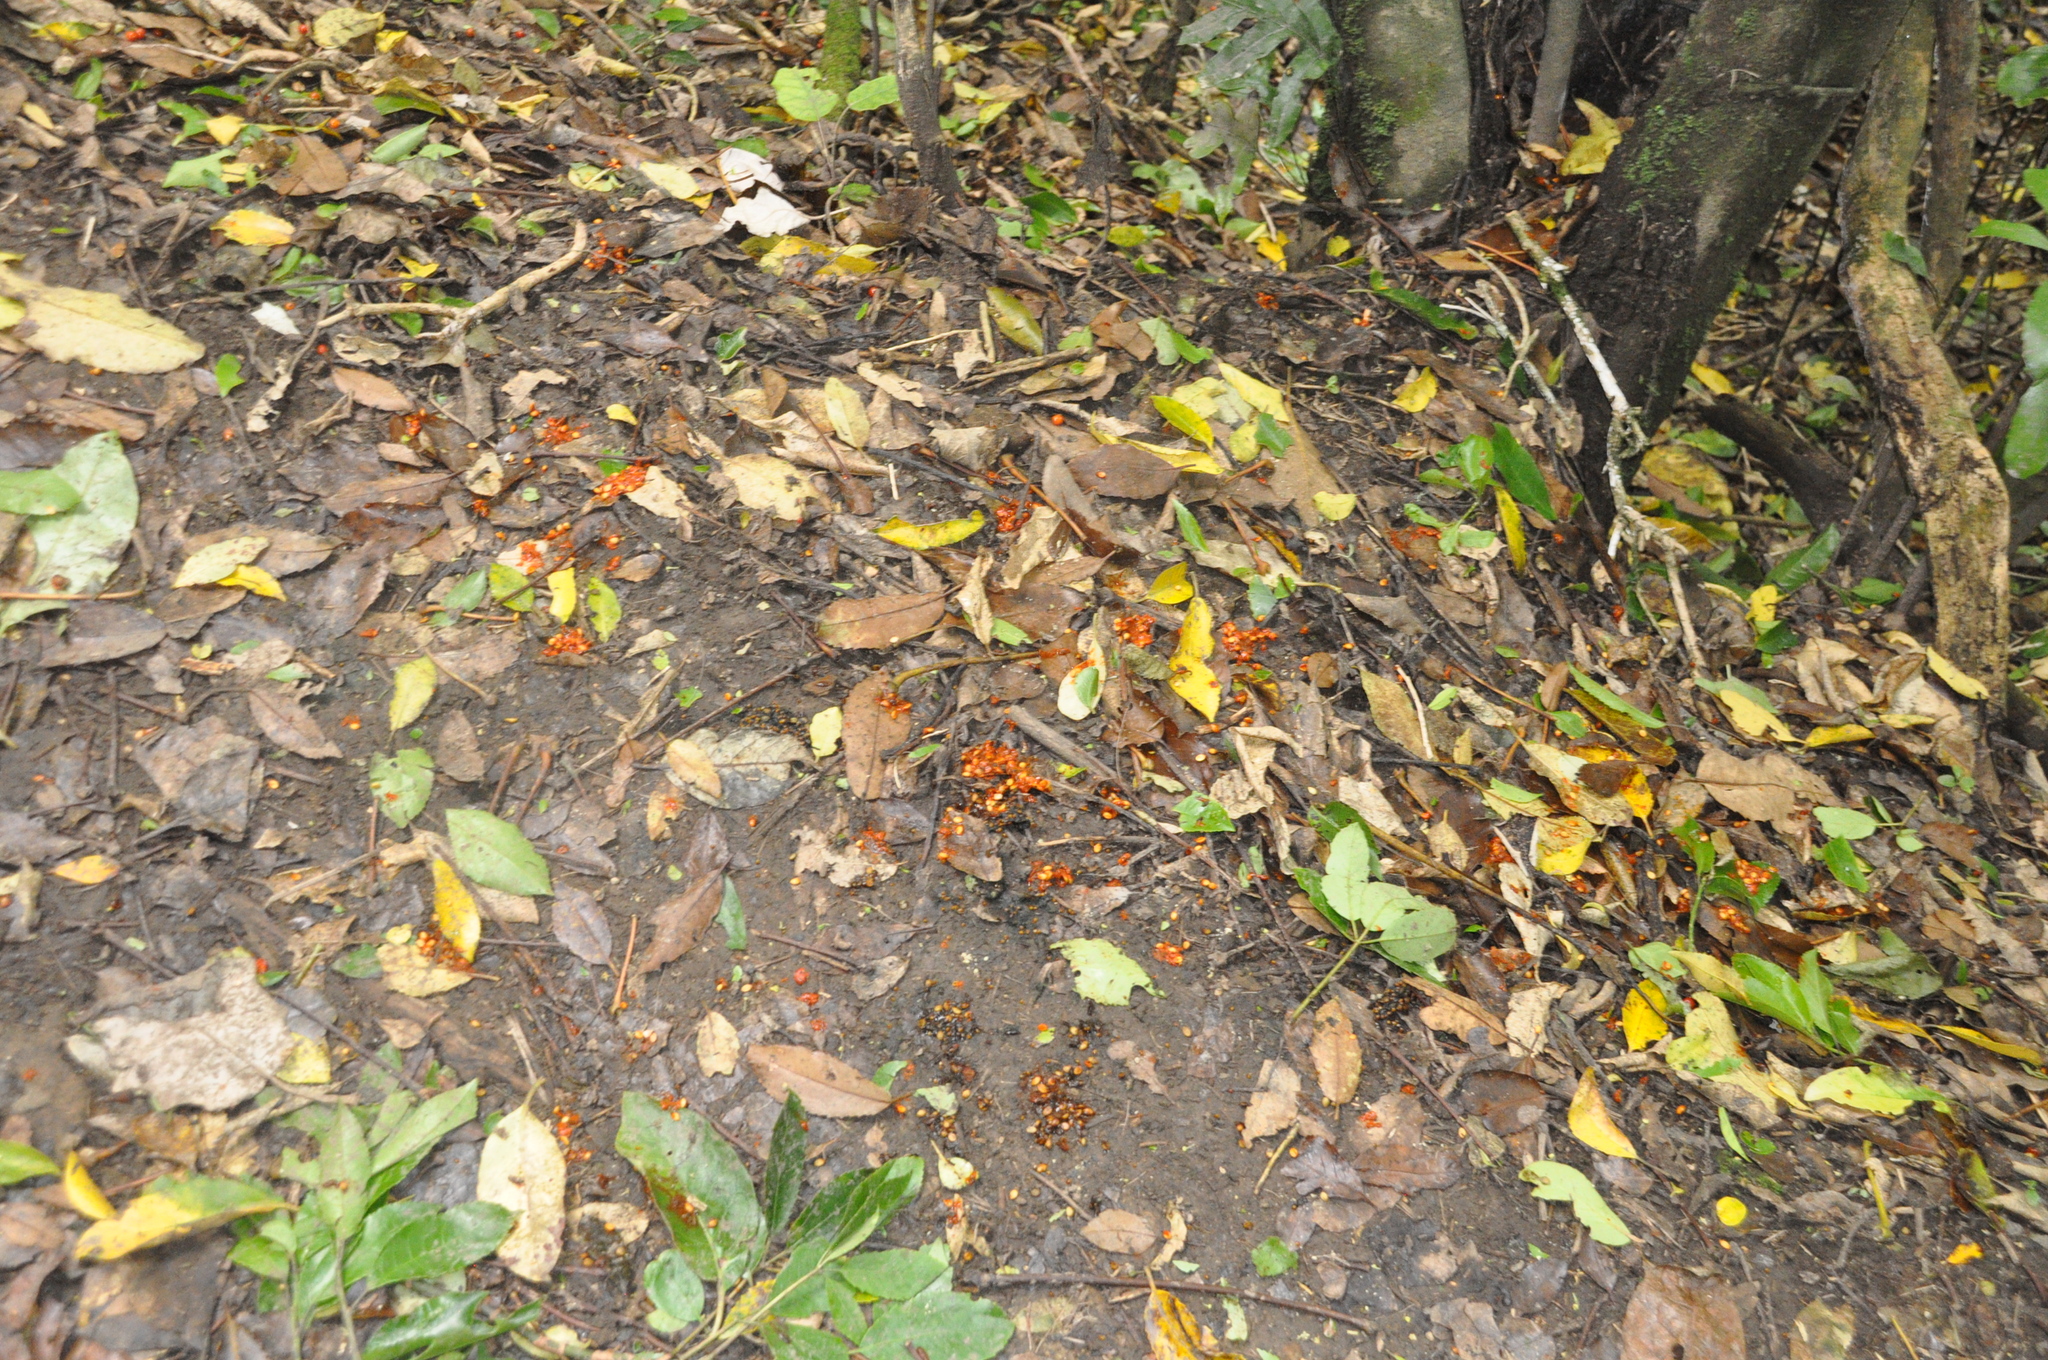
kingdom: Animalia
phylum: Chordata
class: Aves
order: Columbiformes
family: Columbidae
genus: Hemiphaga
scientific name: Hemiphaga novaeseelandiae
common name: New zealand pigeon
